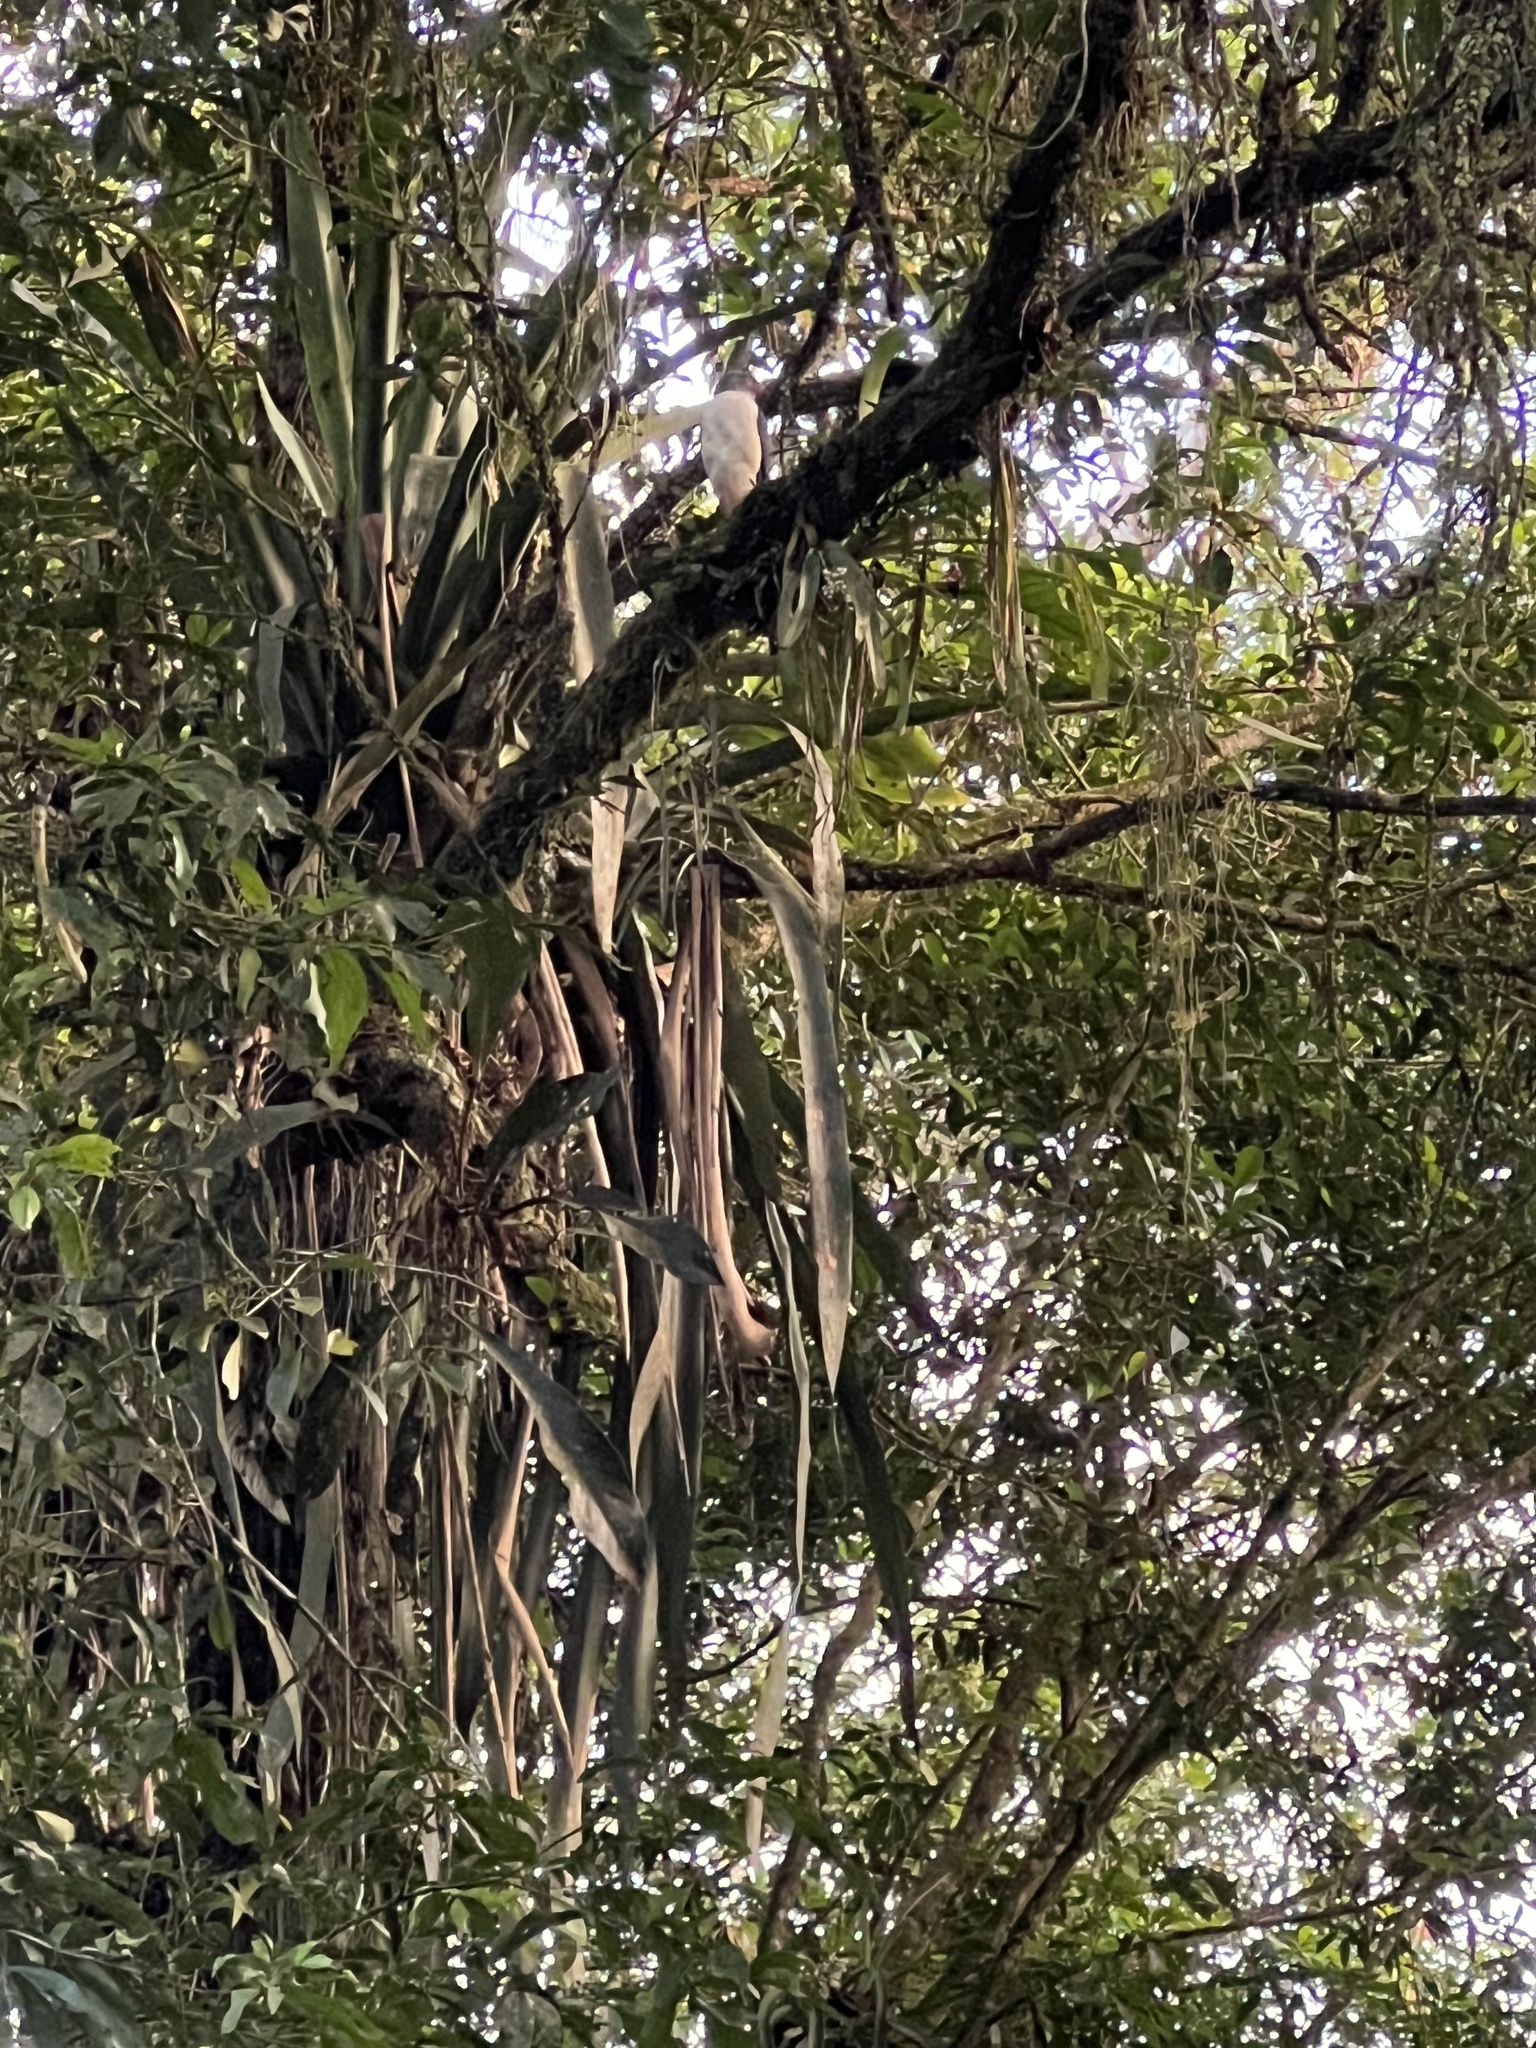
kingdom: Animalia
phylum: Chordata
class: Aves
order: Accipitriformes
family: Accipitridae
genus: Leucopternis
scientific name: Leucopternis semiplumbeus
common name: Semiplumbeous hawk
